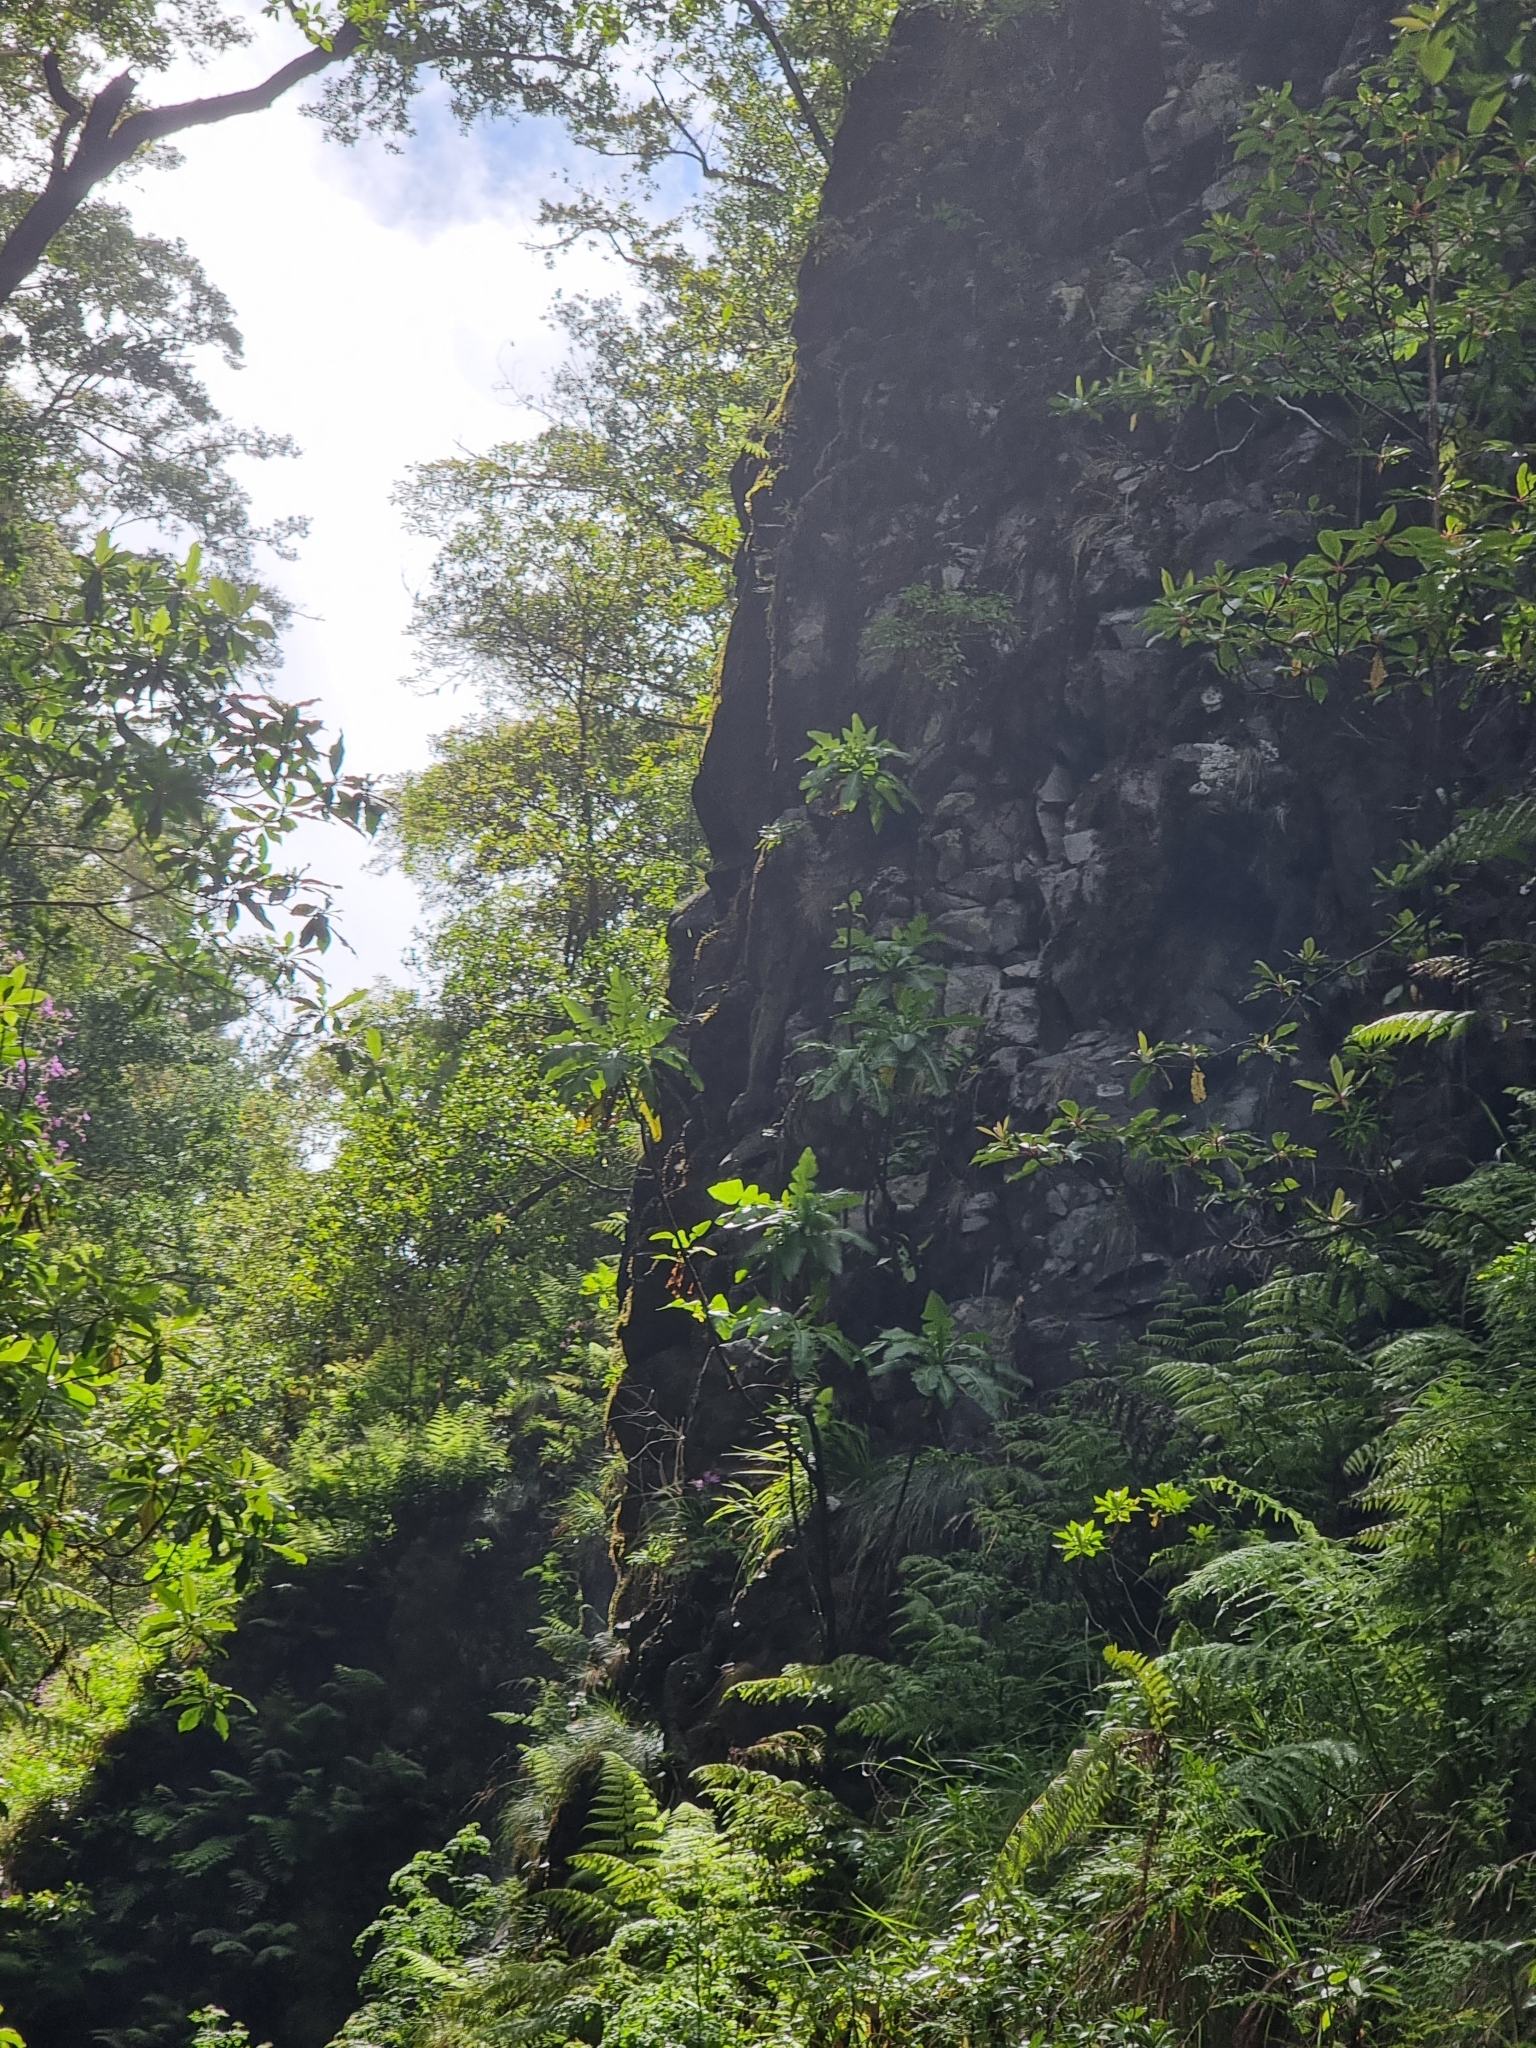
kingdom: Plantae
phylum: Tracheophyta
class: Magnoliopsida
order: Asterales
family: Asteraceae
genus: Sonchus
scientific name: Sonchus fruticosus
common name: Shrubby sow-thistle
